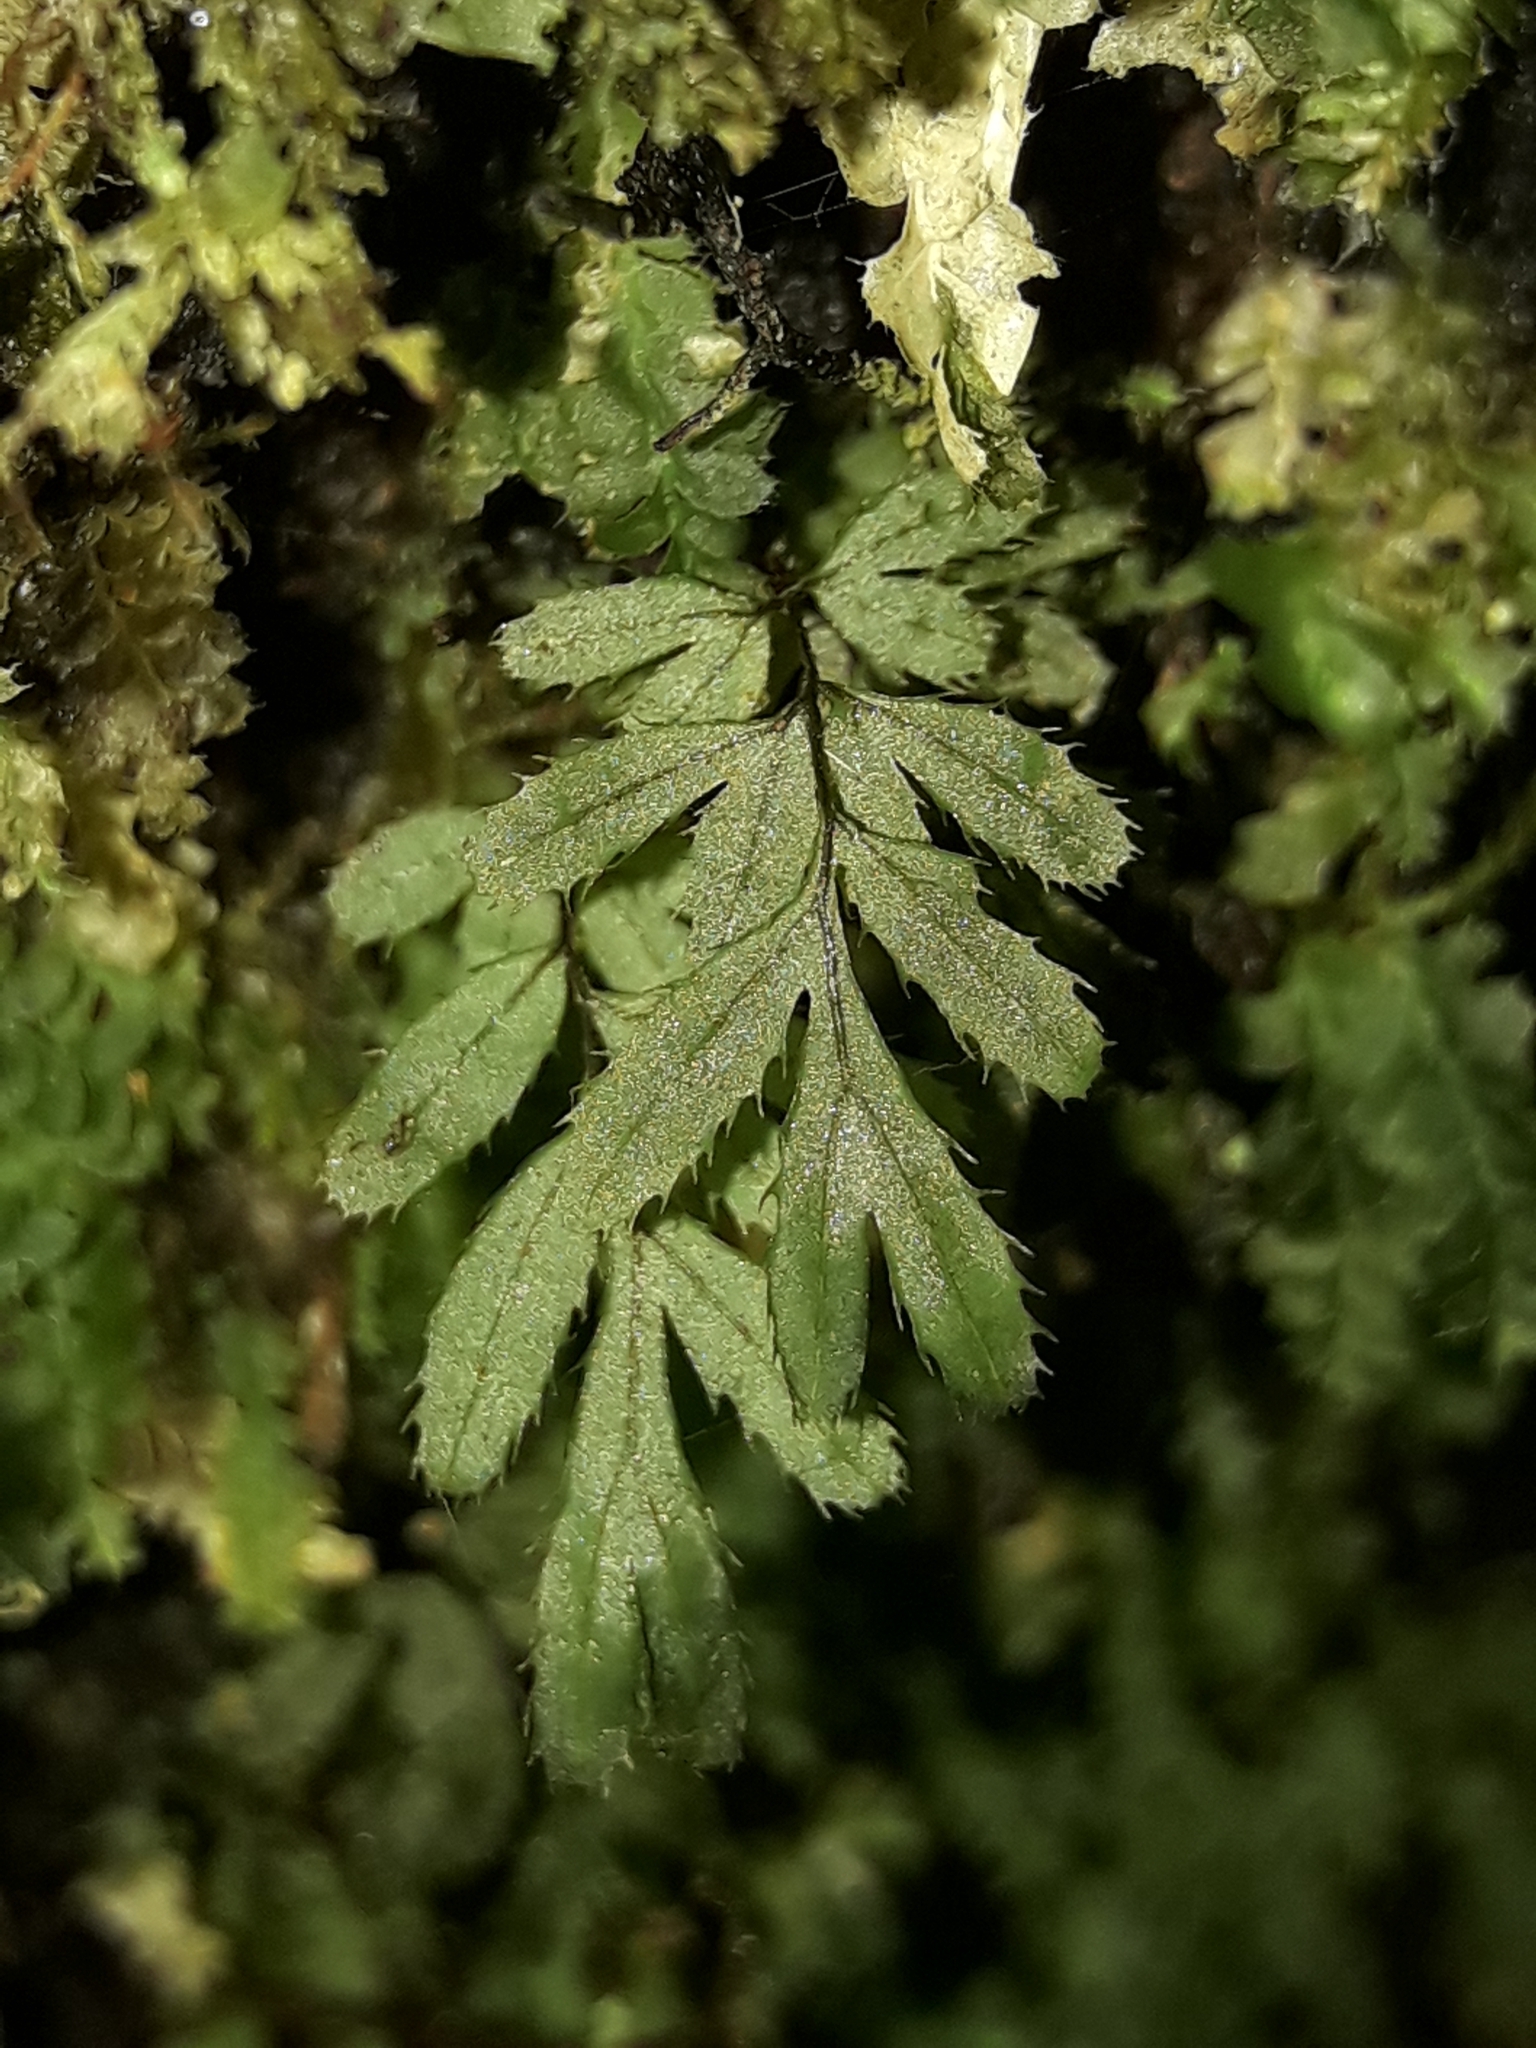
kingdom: Plantae
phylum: Tracheophyta
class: Polypodiopsida
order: Hymenophyllales
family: Hymenophyllaceae
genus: Hymenophyllum
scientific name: Hymenophyllum revolutum
